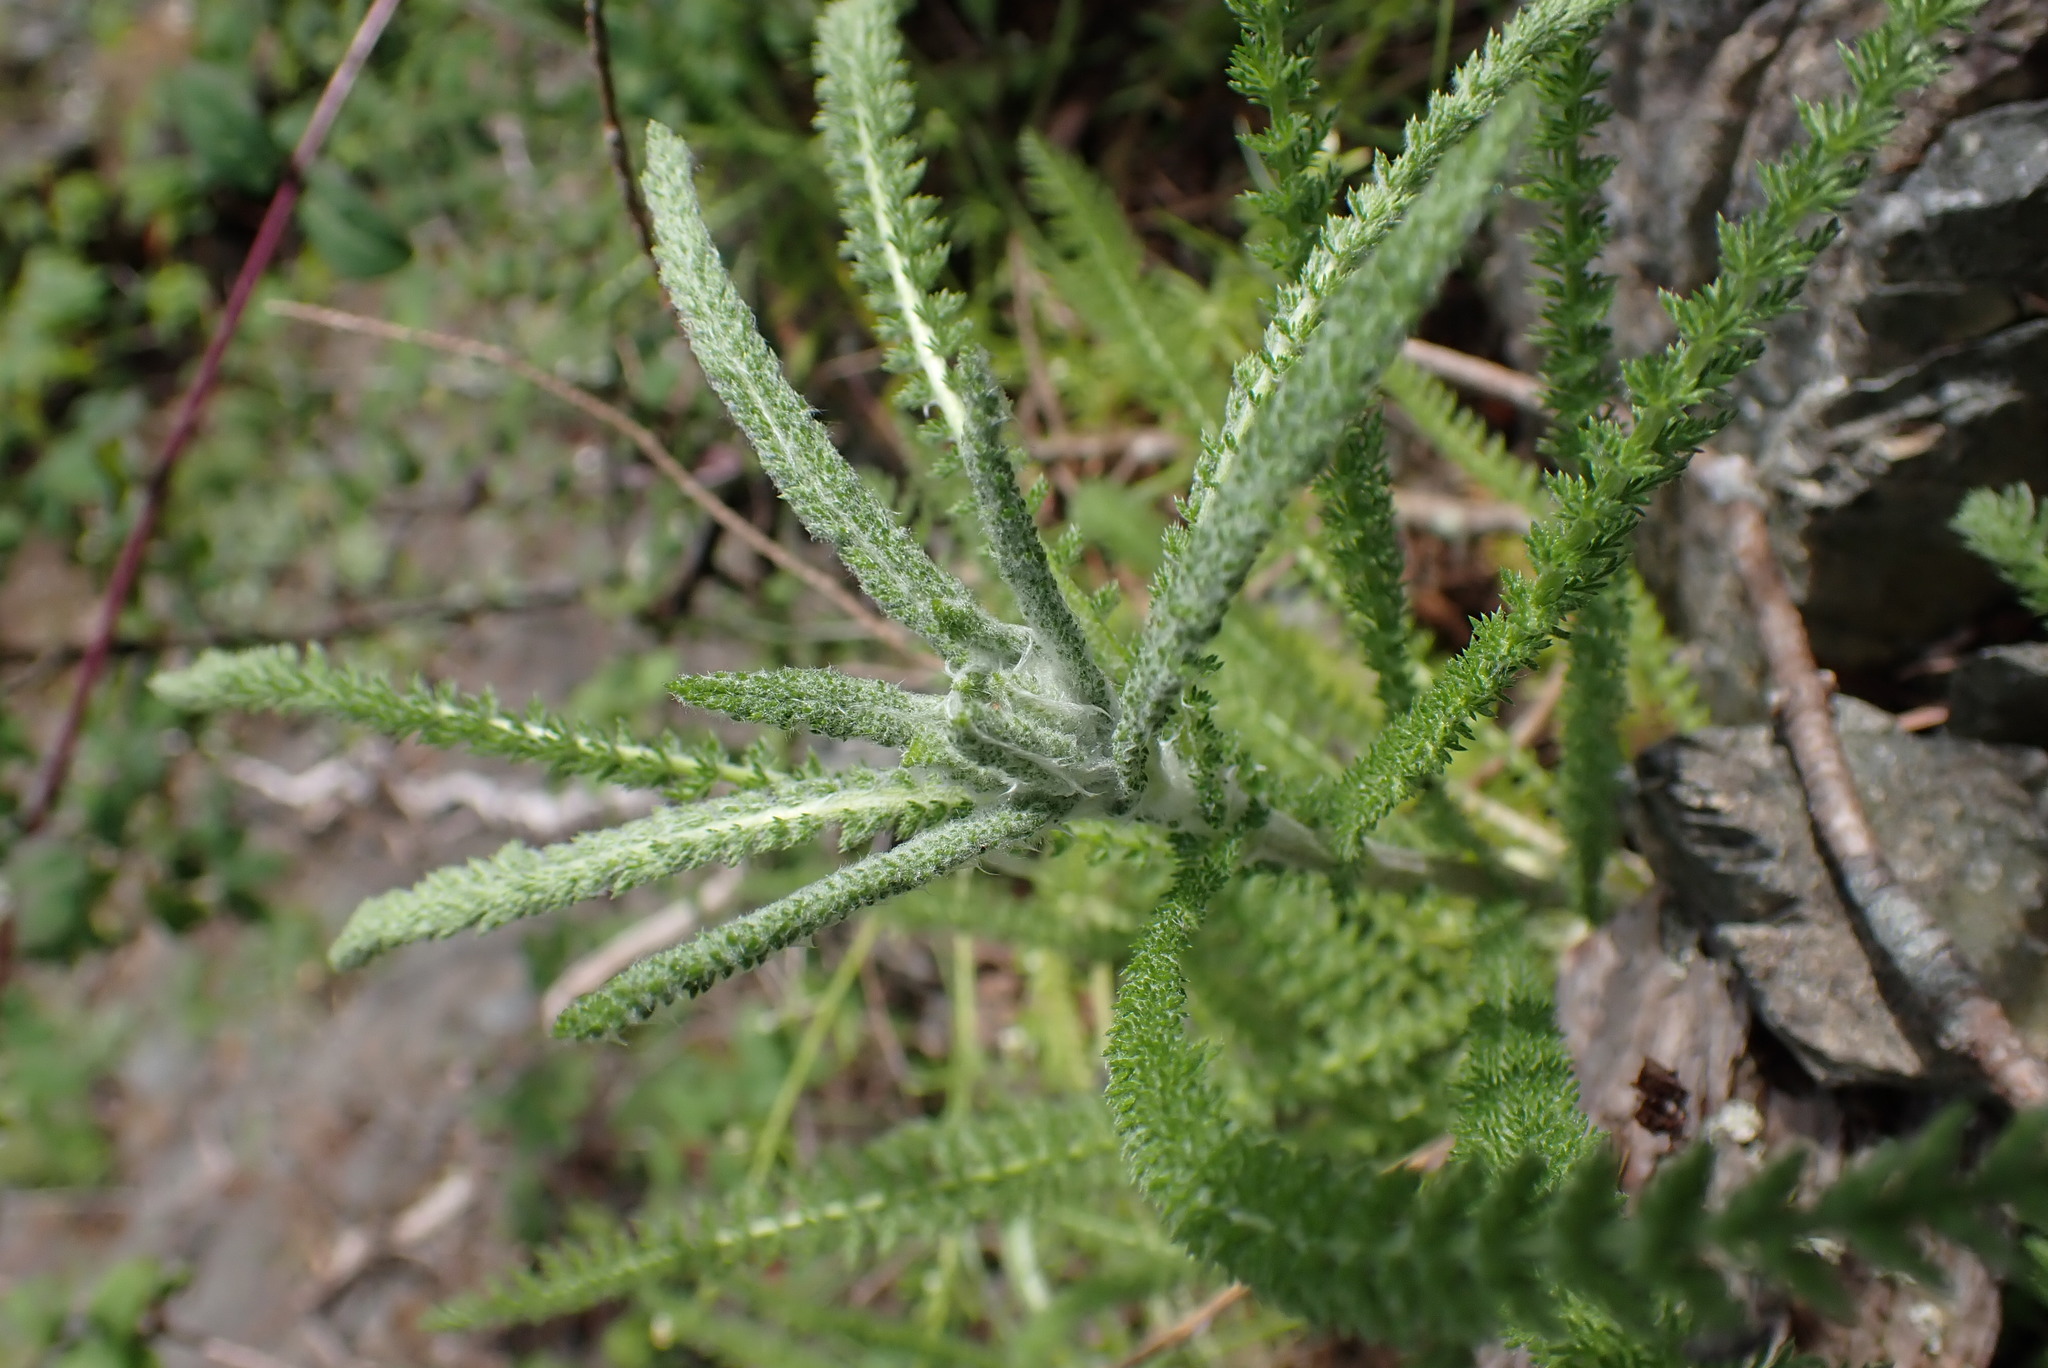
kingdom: Plantae
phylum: Tracheophyta
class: Magnoliopsida
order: Asterales
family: Asteraceae
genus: Achillea
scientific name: Achillea millefolium
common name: Yarrow
